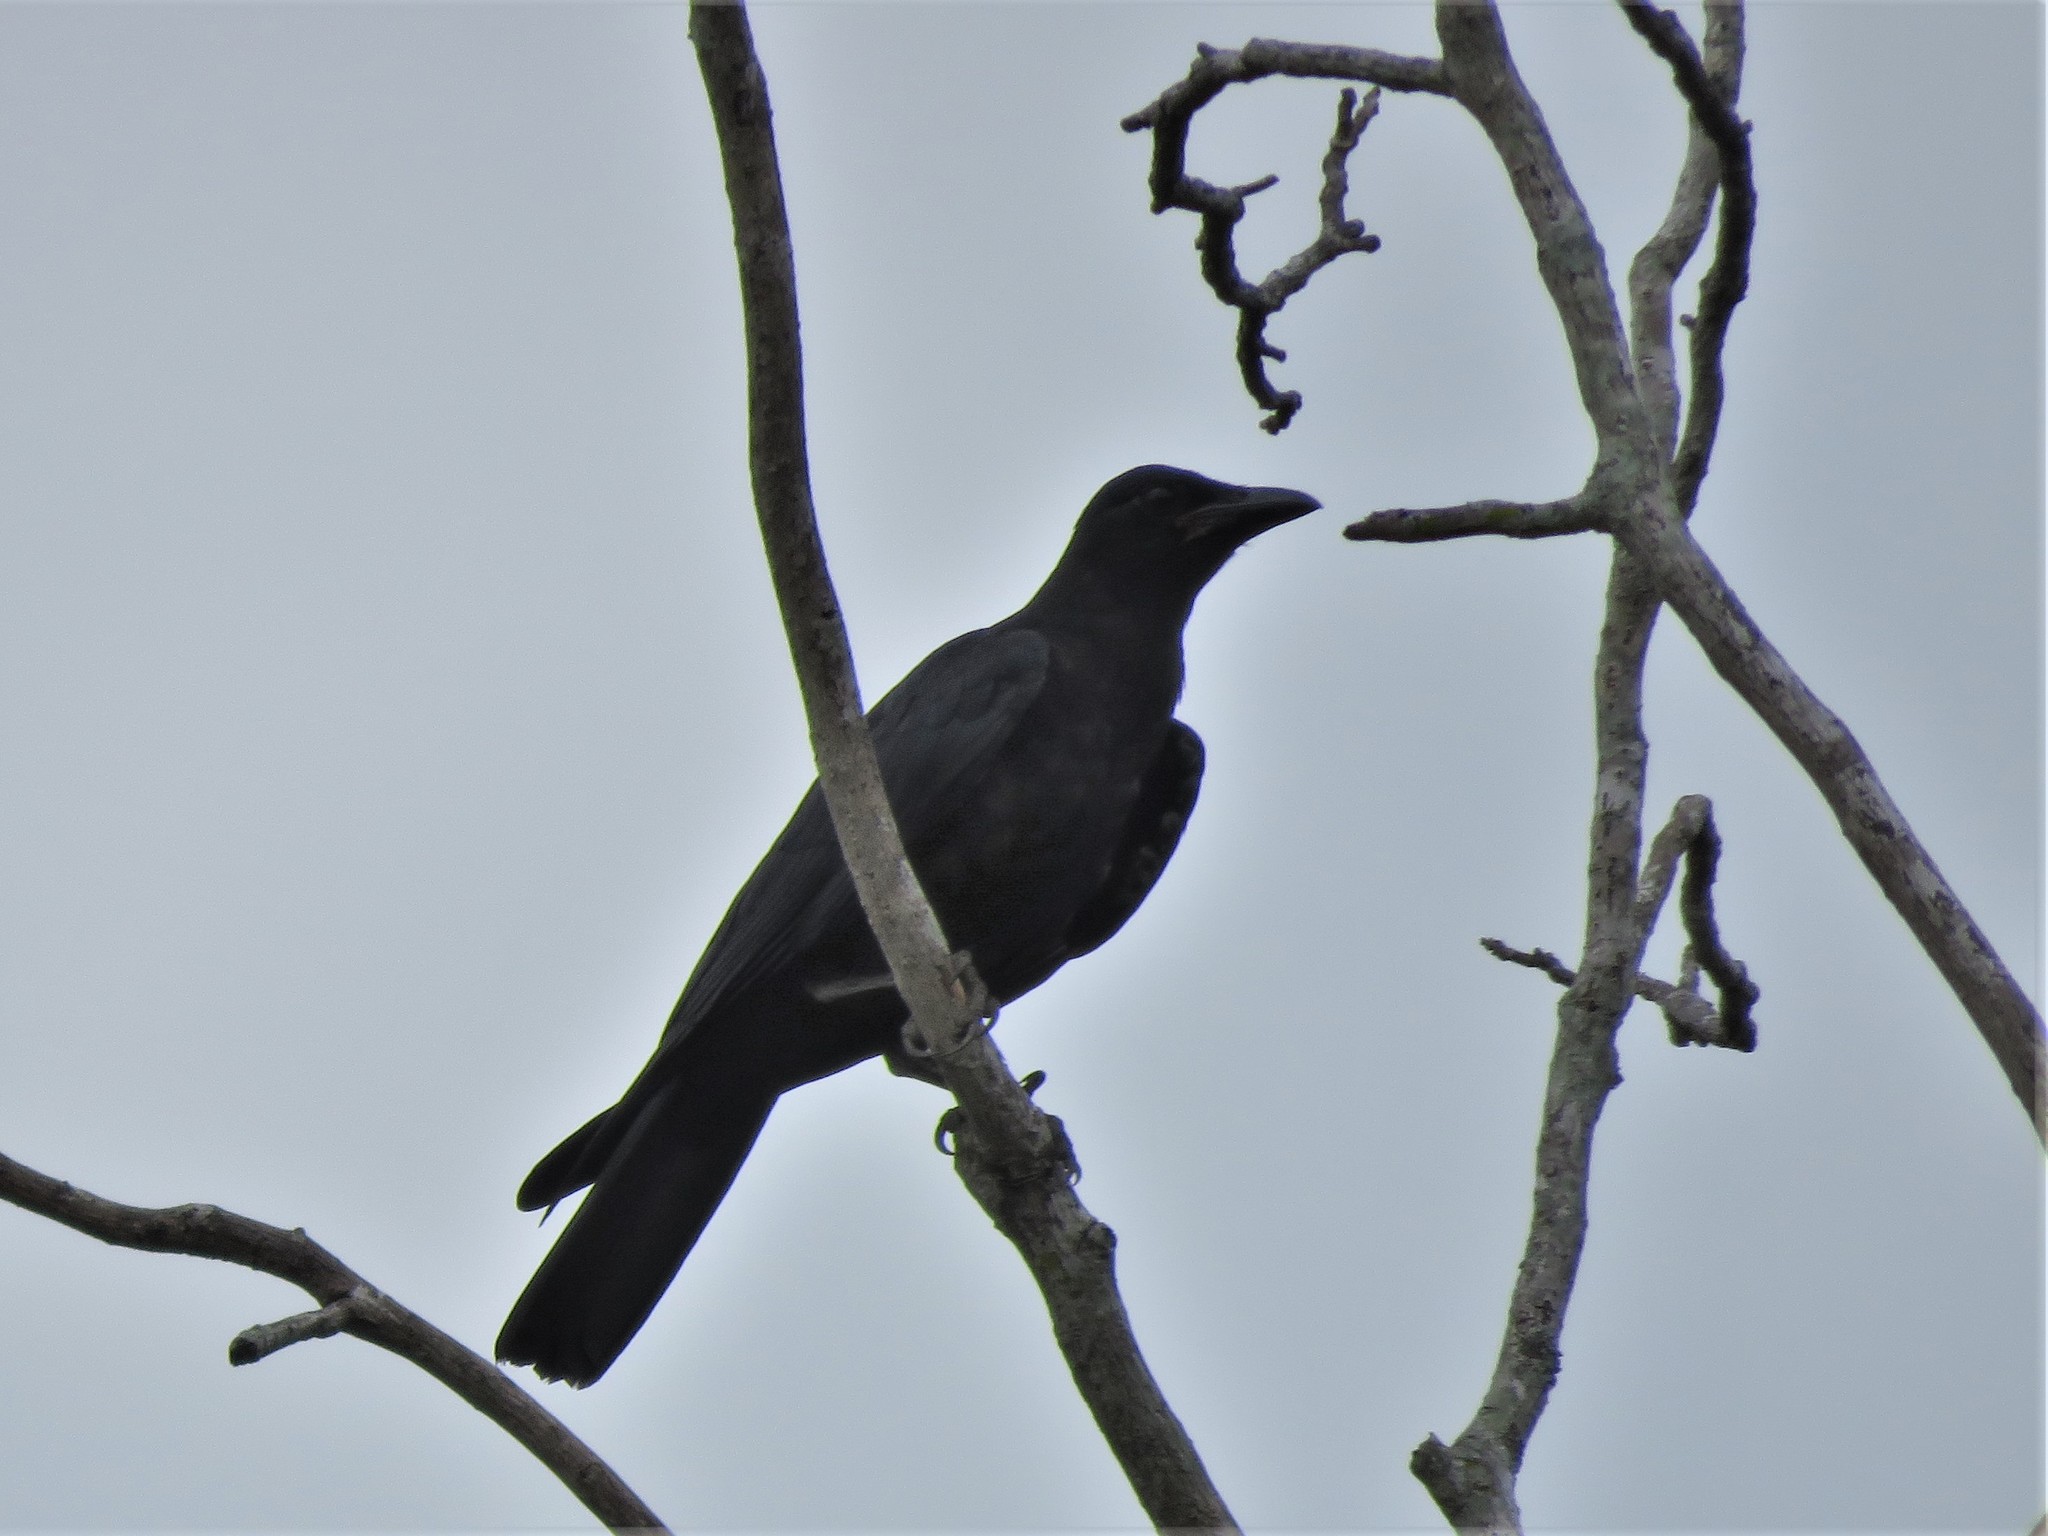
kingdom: Animalia
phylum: Chordata
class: Aves
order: Passeriformes
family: Corvidae
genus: Corvus
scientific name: Corvus imparatus
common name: Tamaulipas crow
